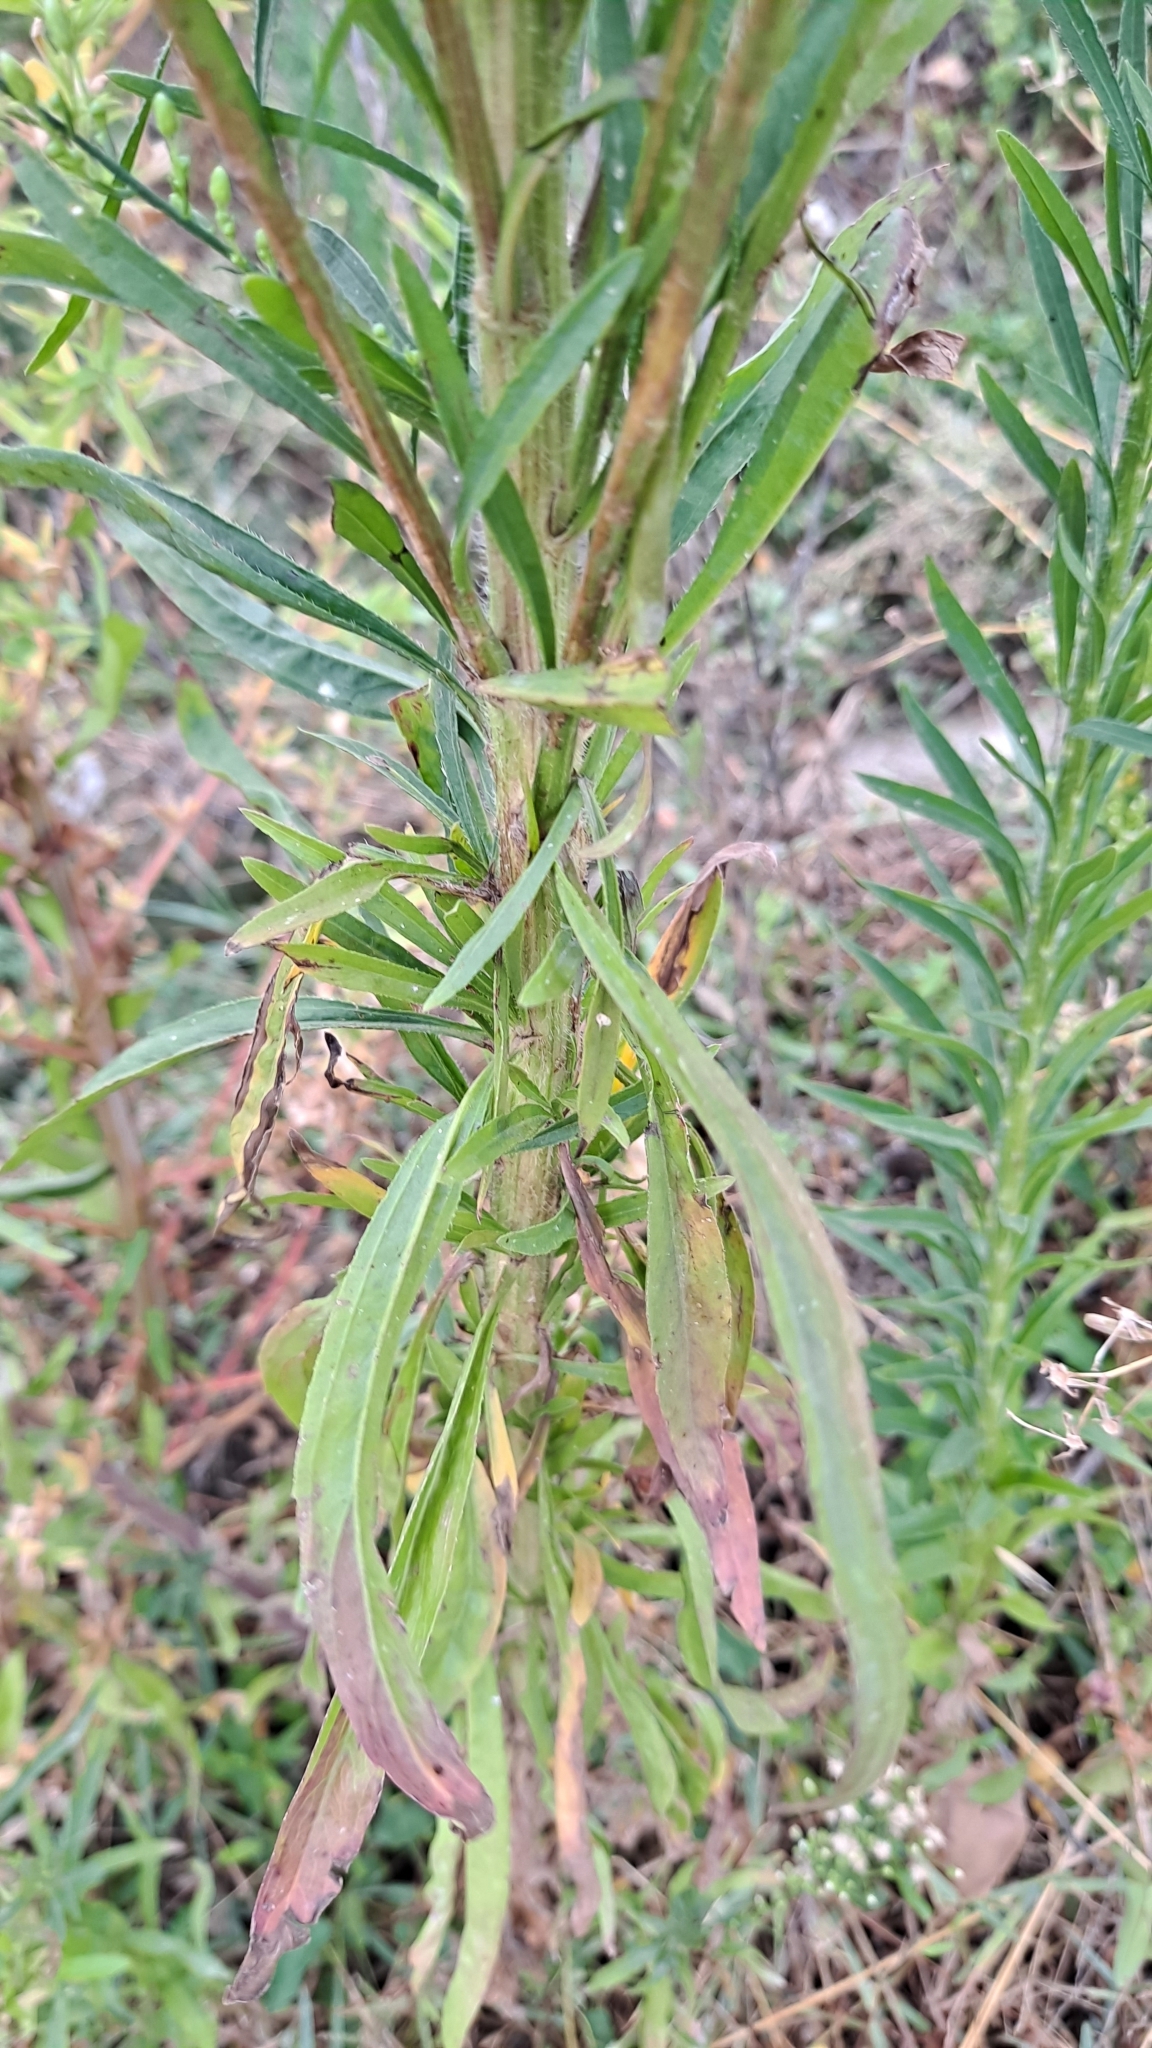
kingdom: Plantae
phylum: Tracheophyta
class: Magnoliopsida
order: Asterales
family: Asteraceae
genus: Erigeron
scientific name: Erigeron canadensis
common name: Canadian fleabane
